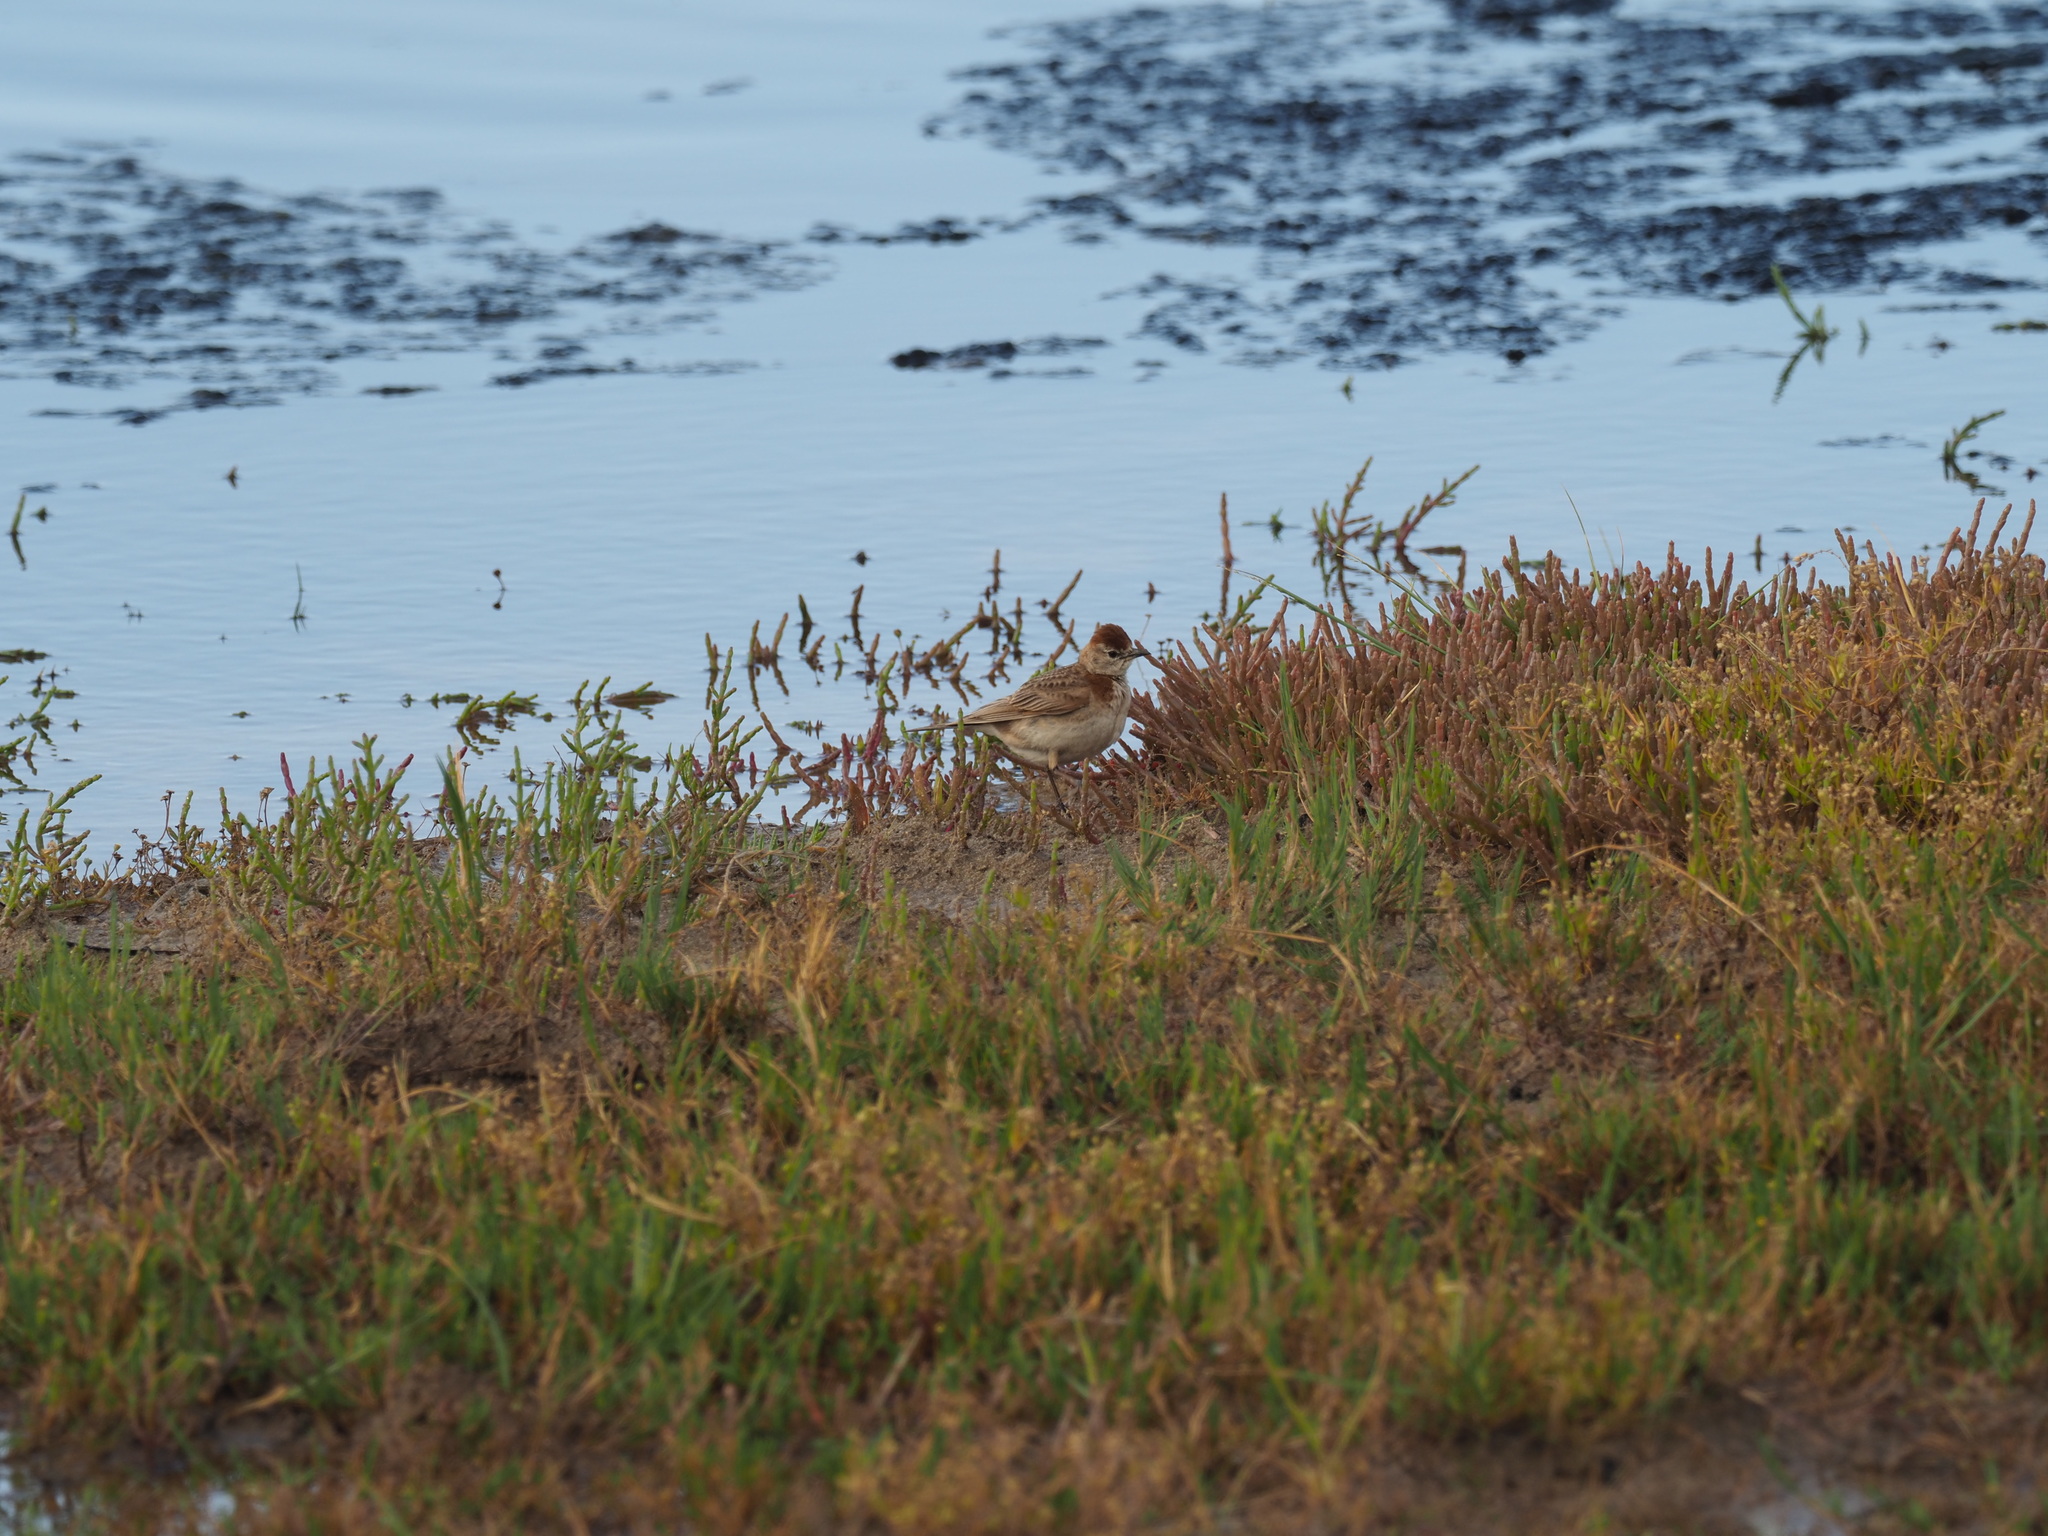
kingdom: Animalia
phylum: Chordata
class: Aves
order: Passeriformes
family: Alaudidae
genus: Calandrella
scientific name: Calandrella cinerea
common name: Red-capped lark
